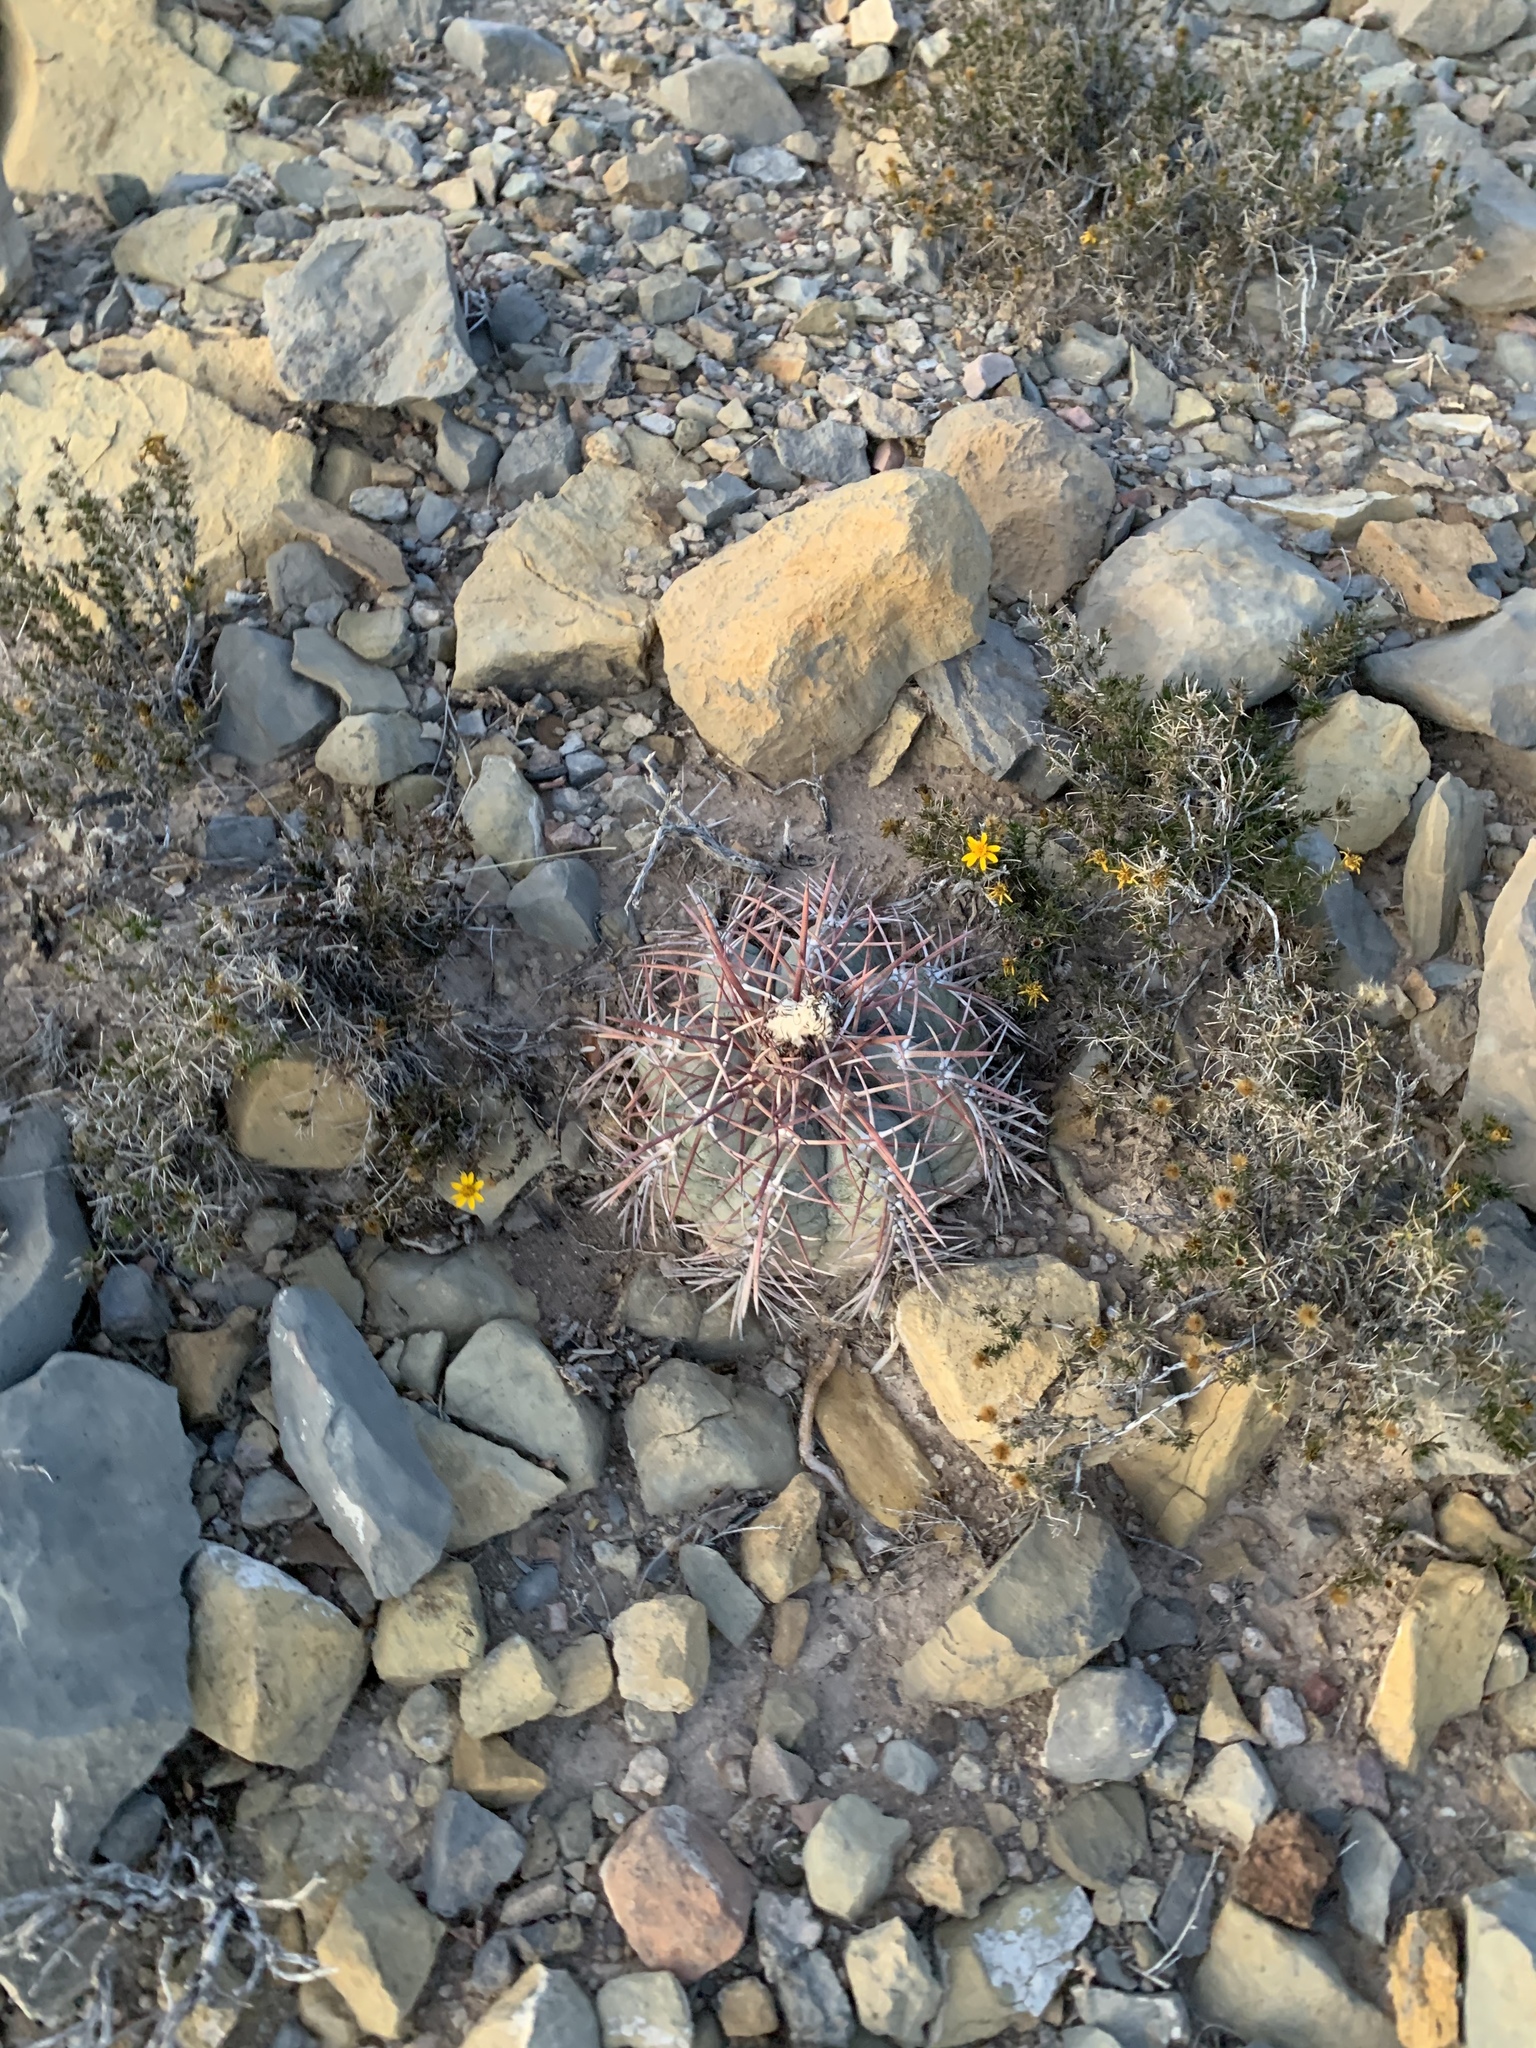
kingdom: Plantae
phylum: Tracheophyta
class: Magnoliopsida
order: Caryophyllales
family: Cactaceae
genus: Echinocactus
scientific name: Echinocactus horizonthalonius
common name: Devilshead
